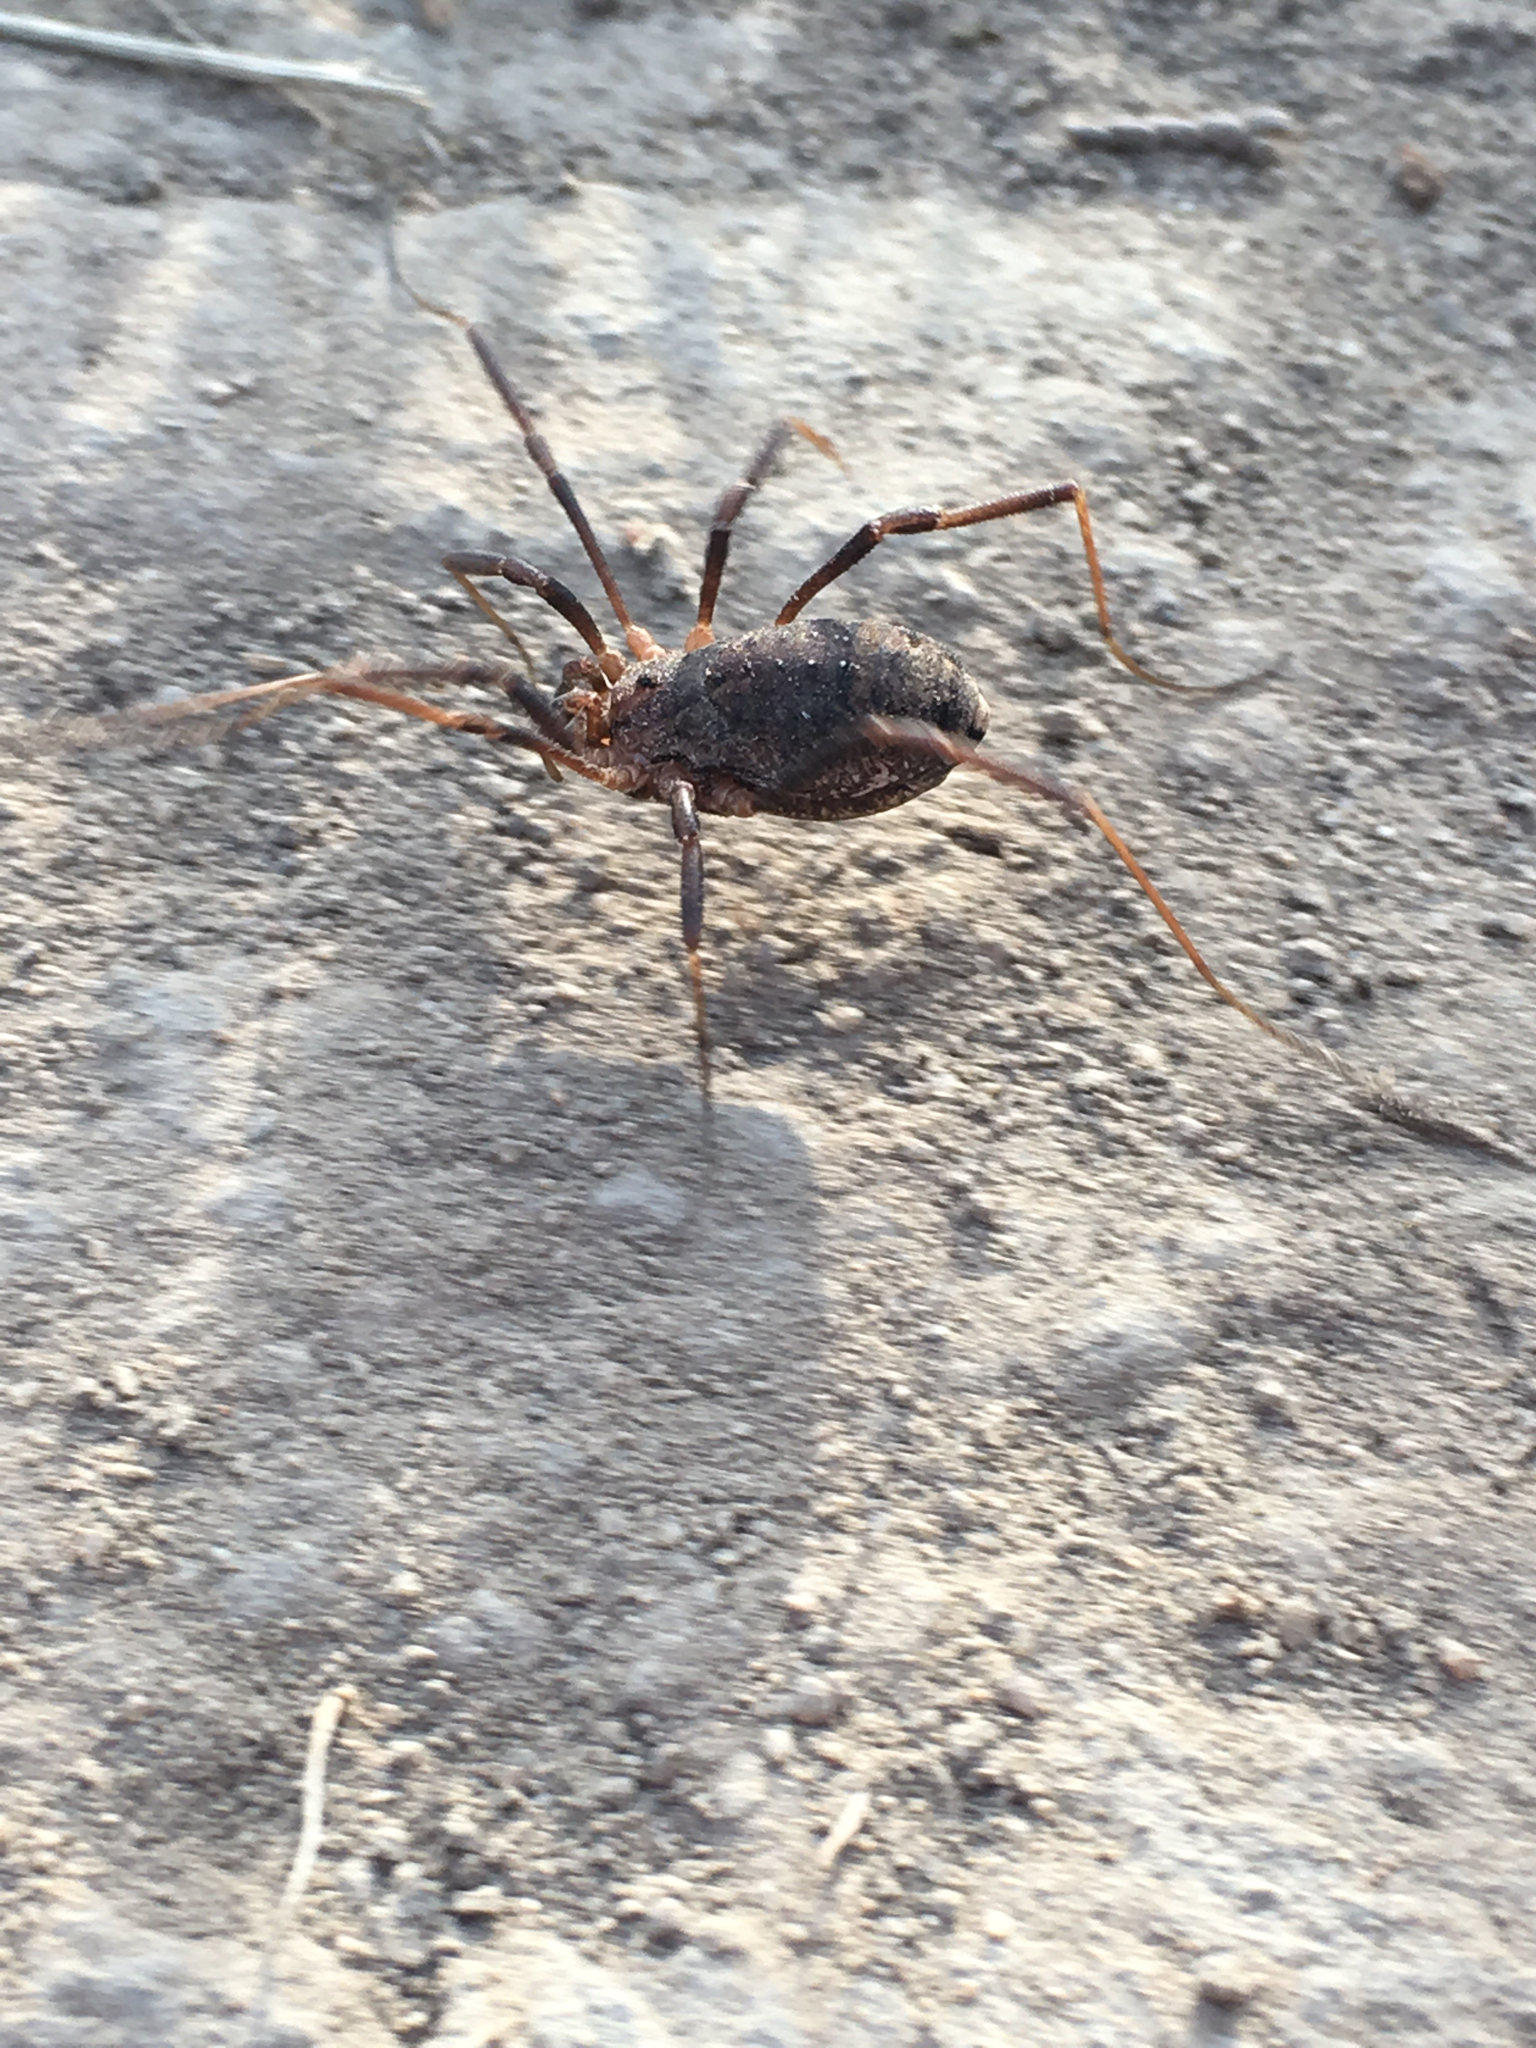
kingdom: Animalia
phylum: Arthropoda
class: Arachnida
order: Opiliones
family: Protolophidae
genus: Protolophus
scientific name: Protolophus rossi
